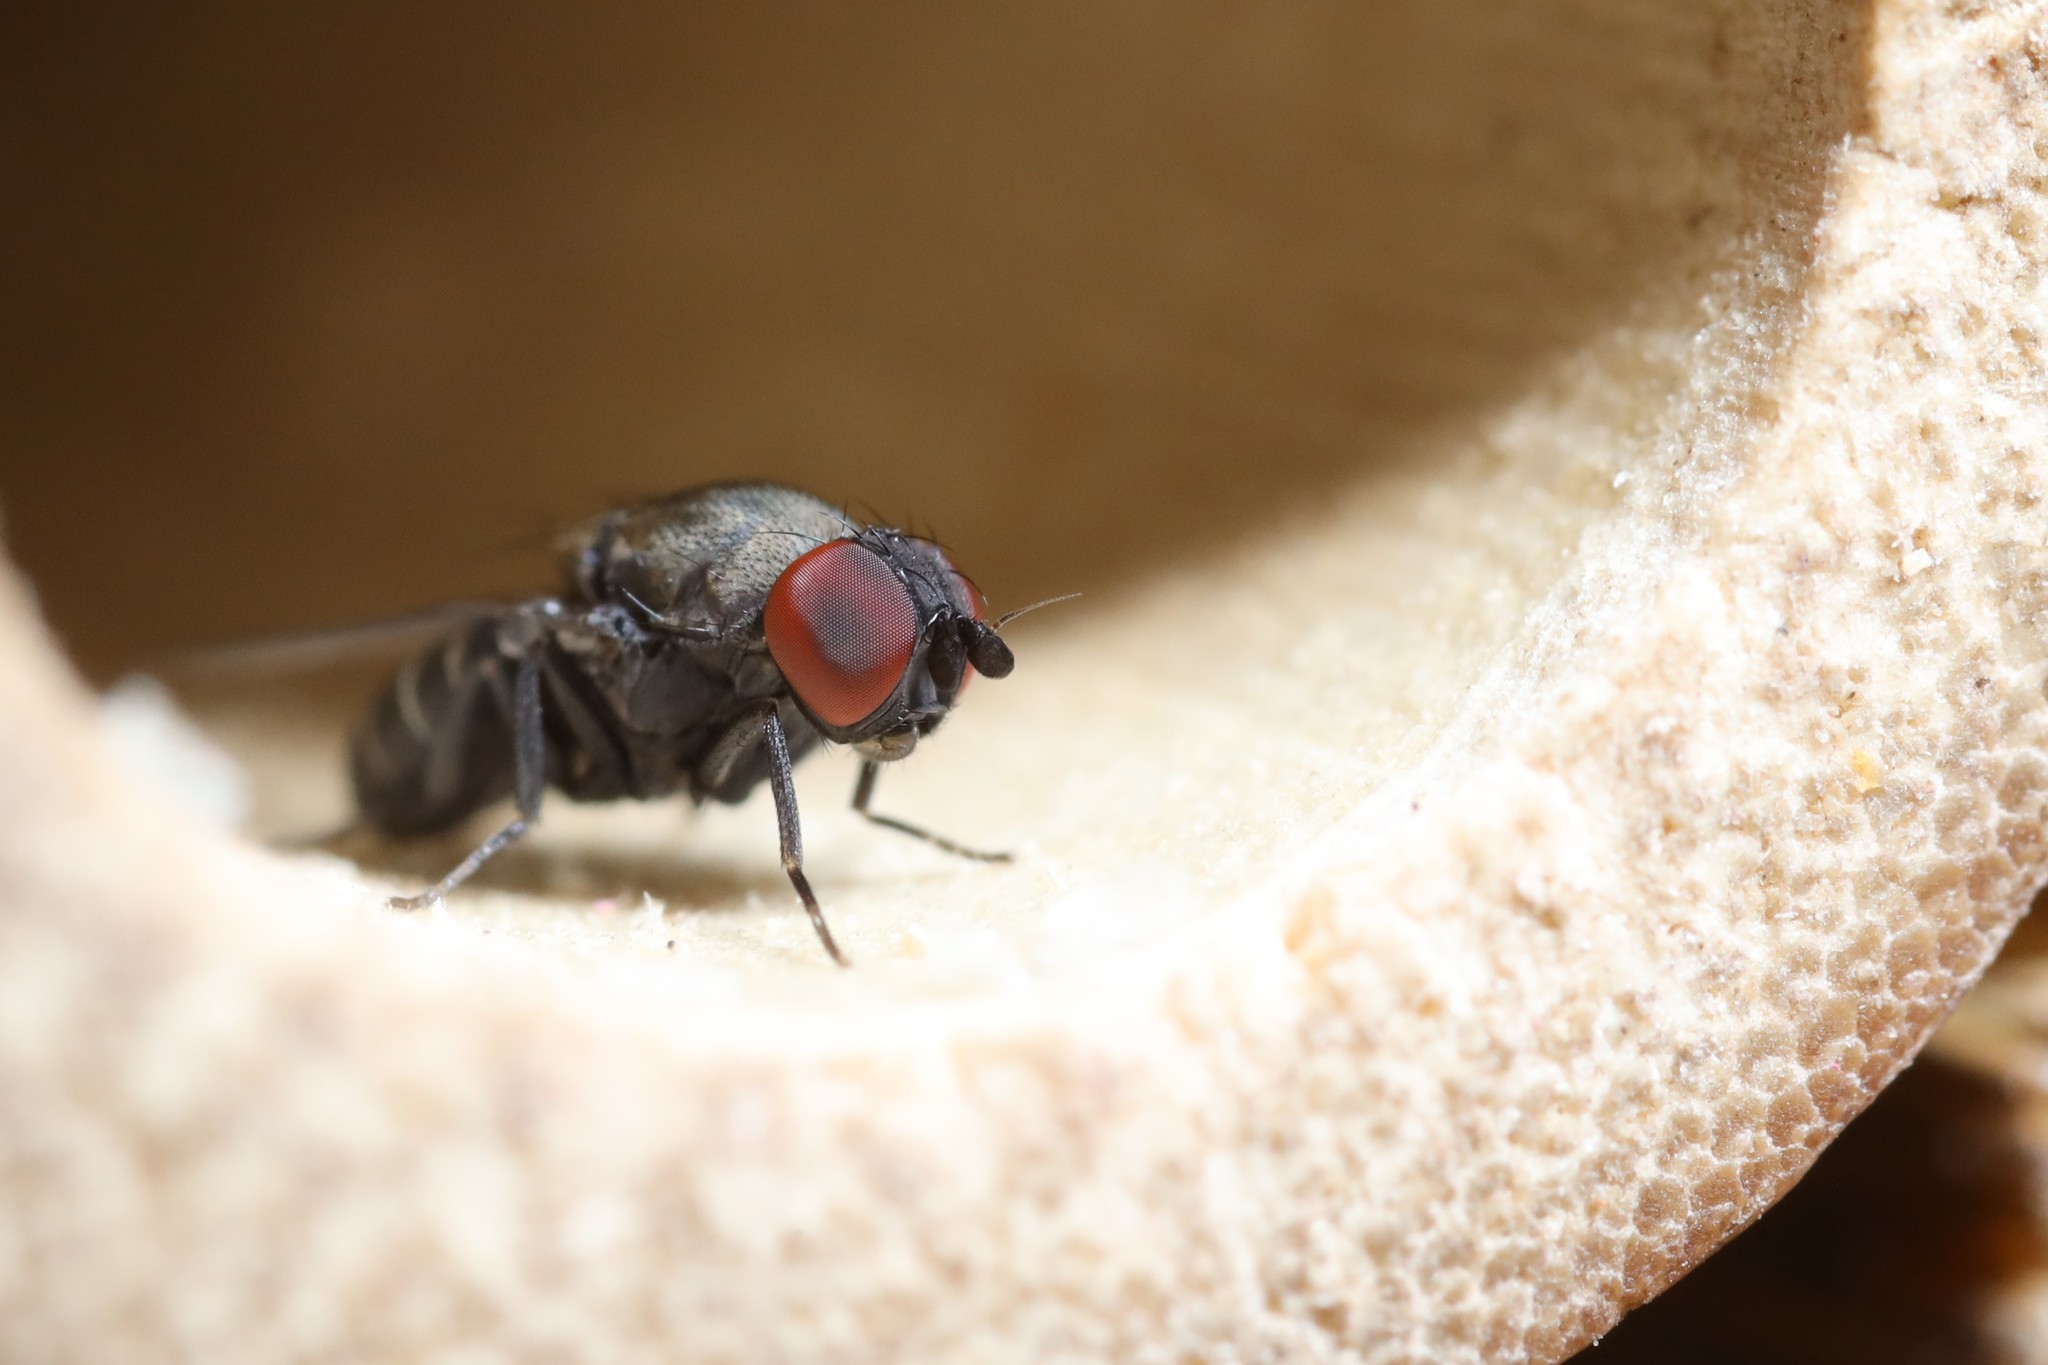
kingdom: Animalia
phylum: Arthropoda
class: Insecta
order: Diptera
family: Drosophilidae
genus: Cacoxenus
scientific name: Cacoxenus indagator
